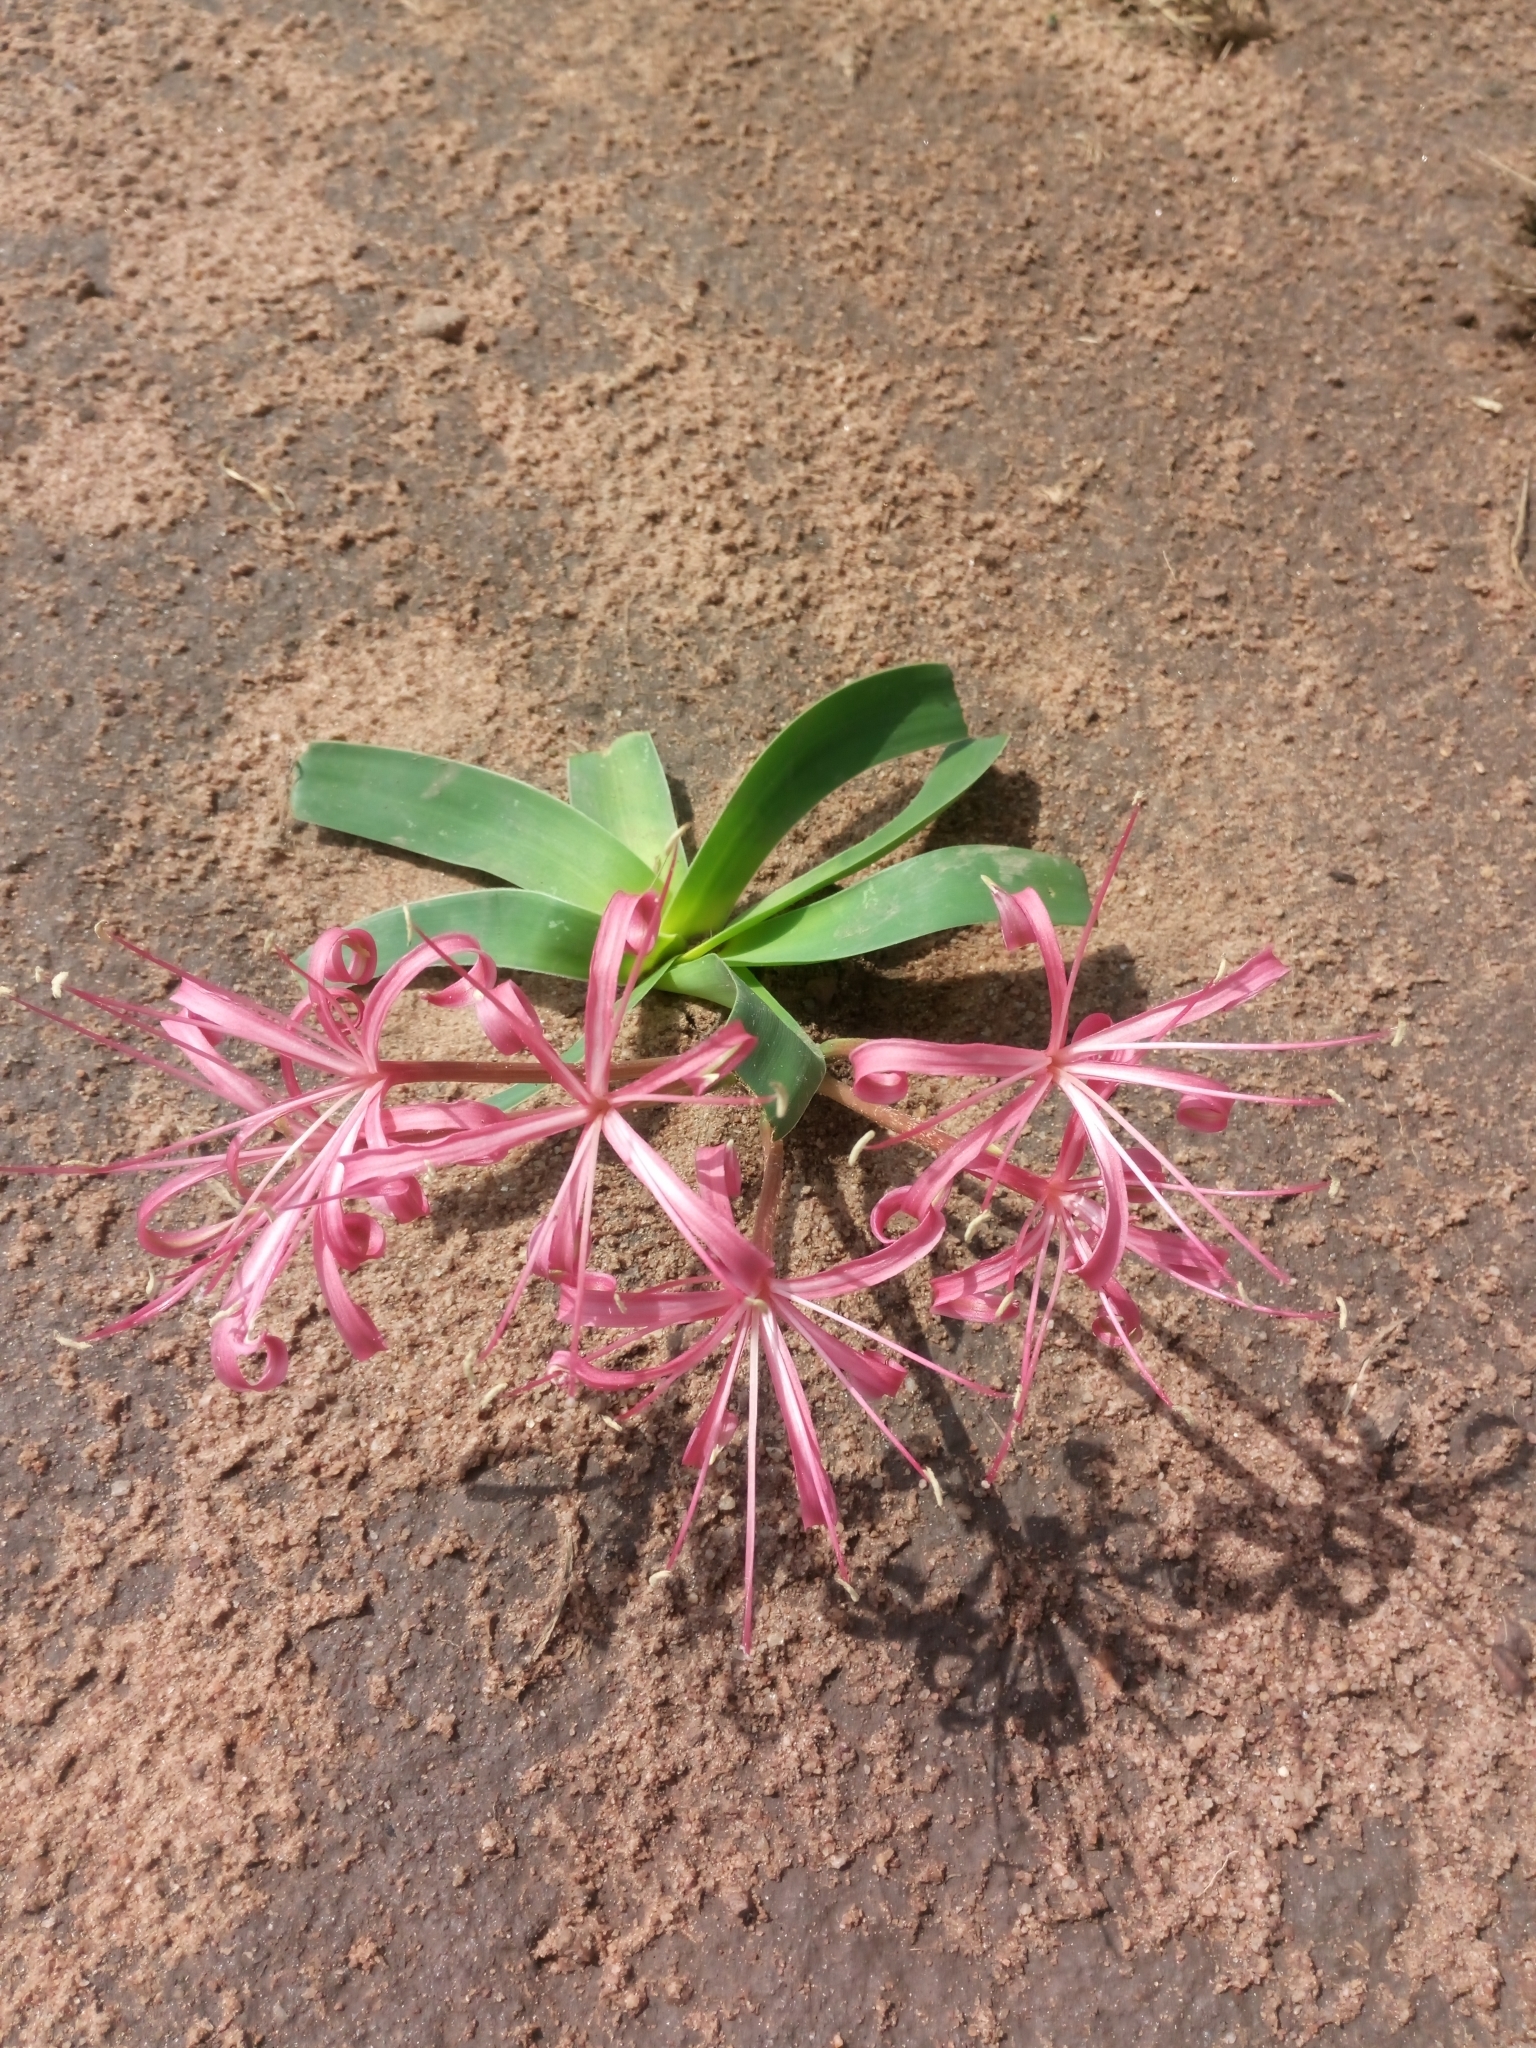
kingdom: Plantae
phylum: Tracheophyta
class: Liliopsida
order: Asparagales
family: Amaryllidaceae
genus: Ammocharis
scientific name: Ammocharis tinneana
